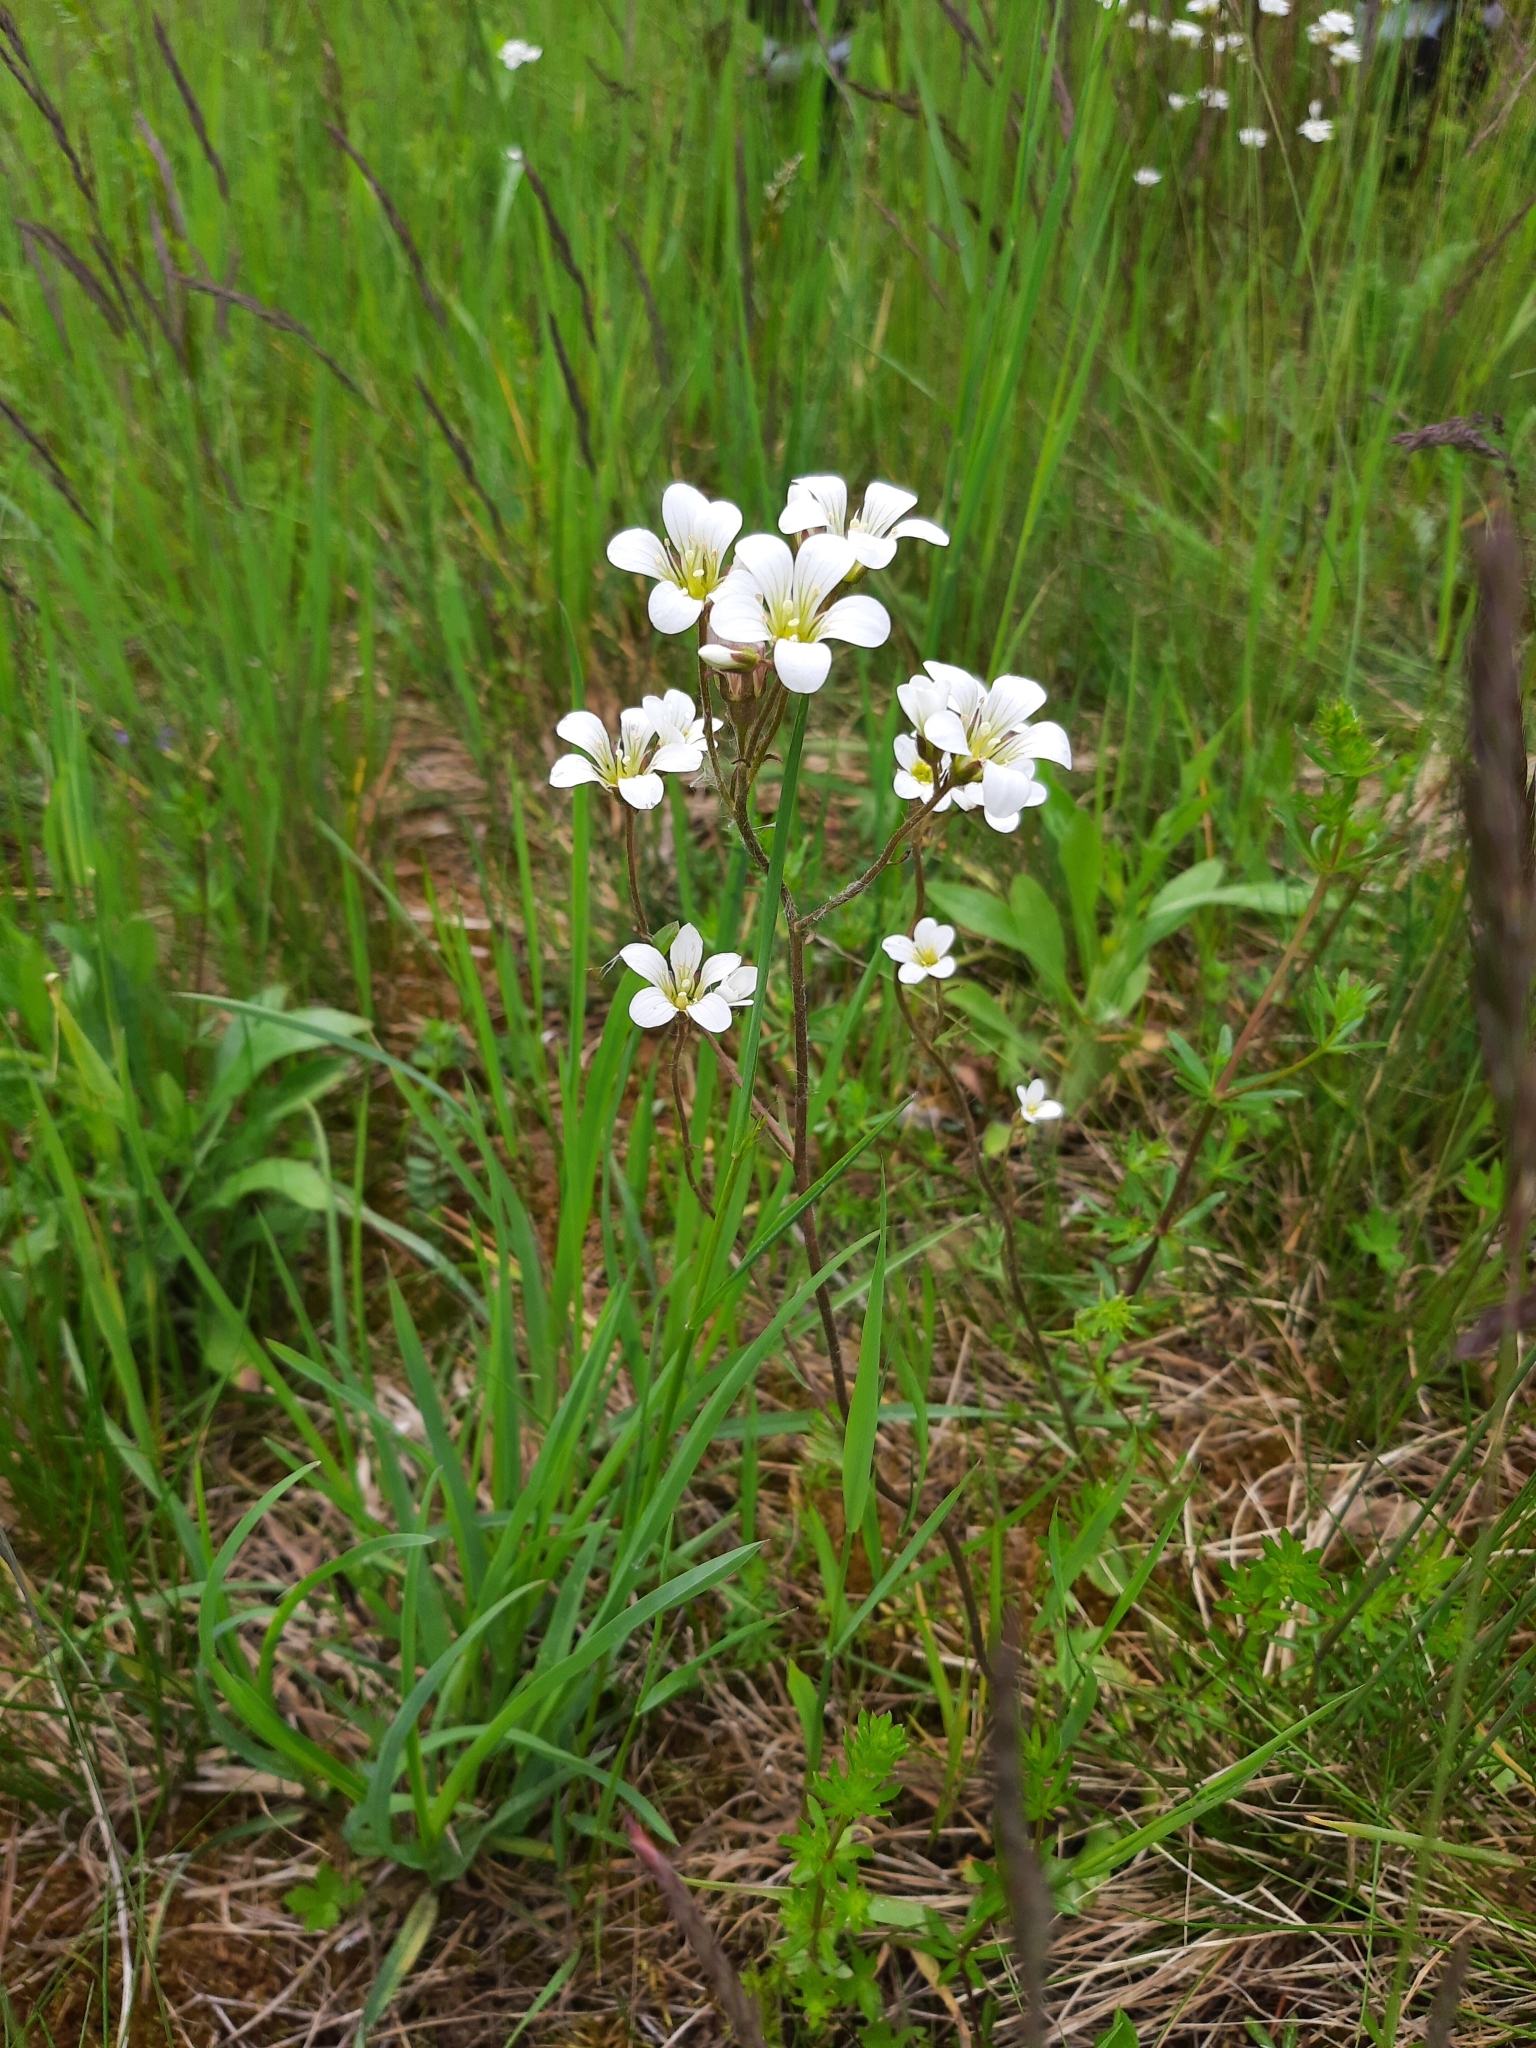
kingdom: Plantae
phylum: Tracheophyta
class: Magnoliopsida
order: Saxifragales
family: Saxifragaceae
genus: Saxifraga
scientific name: Saxifraga granulata
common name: Meadow saxifrage
